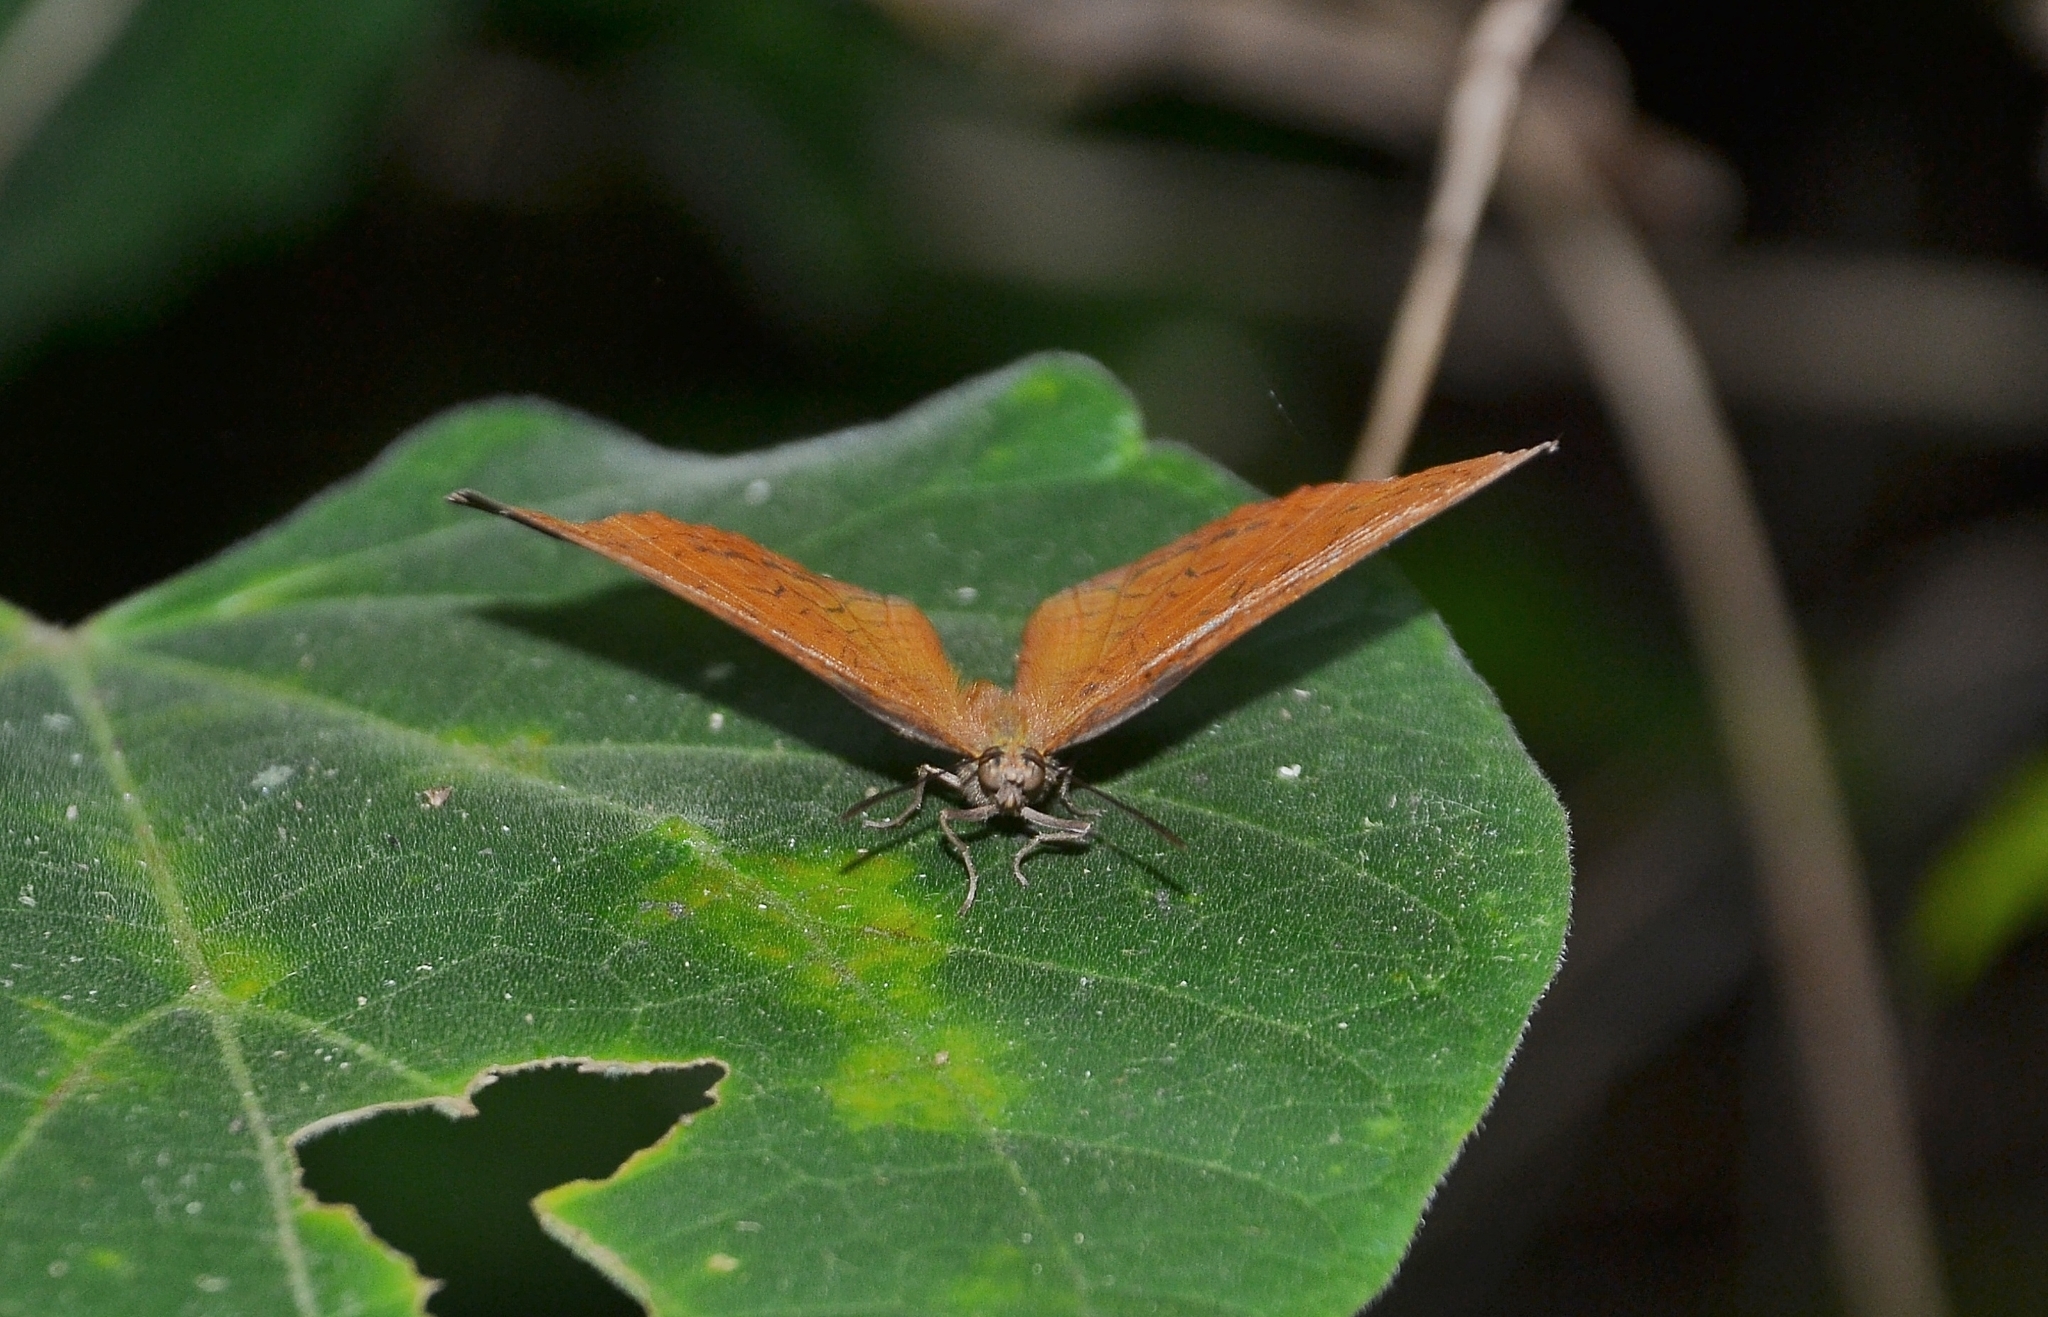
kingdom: Animalia
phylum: Arthropoda
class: Insecta
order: Lepidoptera
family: Nymphalidae
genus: Ariadne
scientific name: Ariadne ariadne
